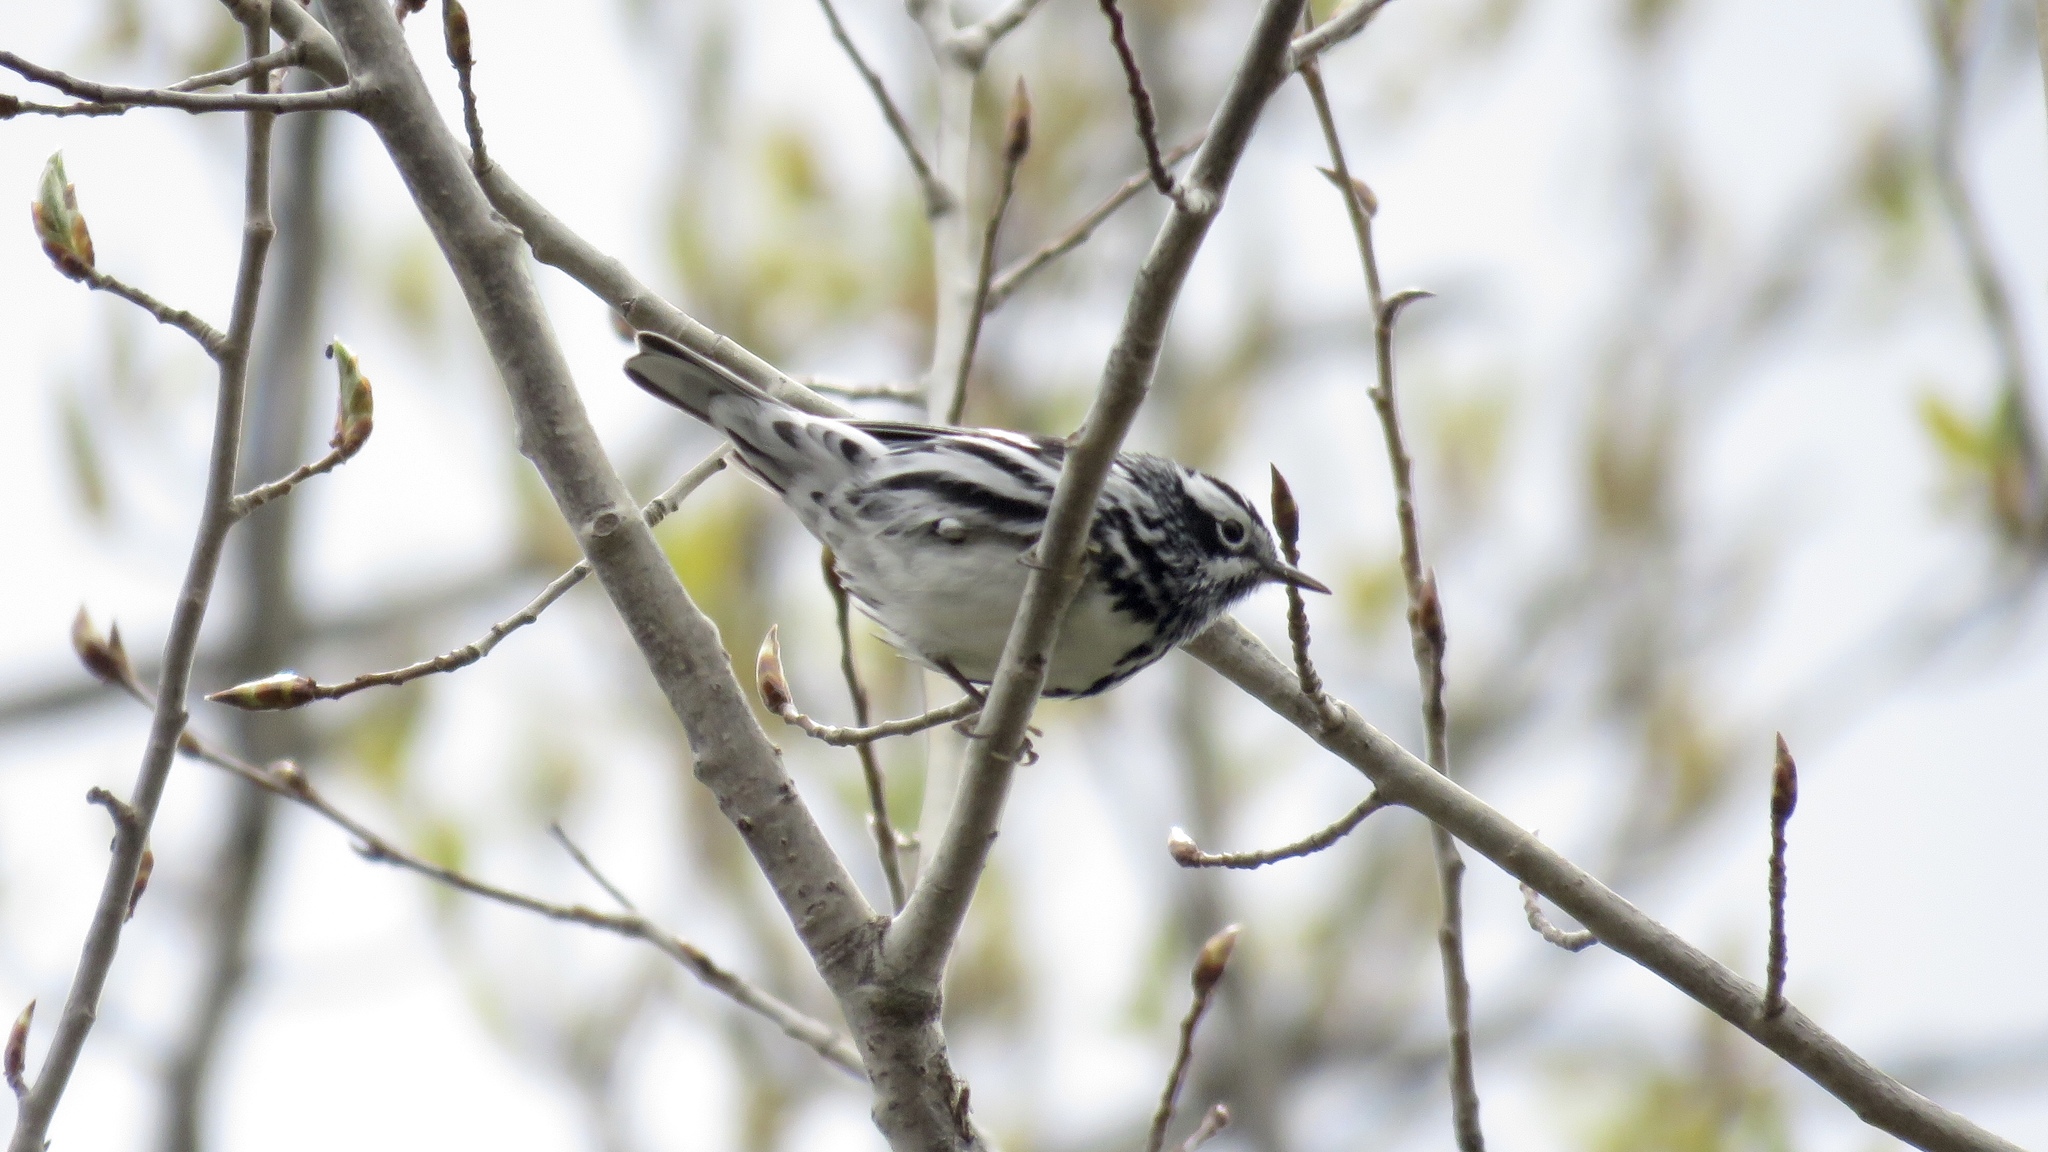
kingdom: Animalia
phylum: Chordata
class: Aves
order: Passeriformes
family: Parulidae
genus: Mniotilta
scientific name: Mniotilta varia
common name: Black-and-white warbler
